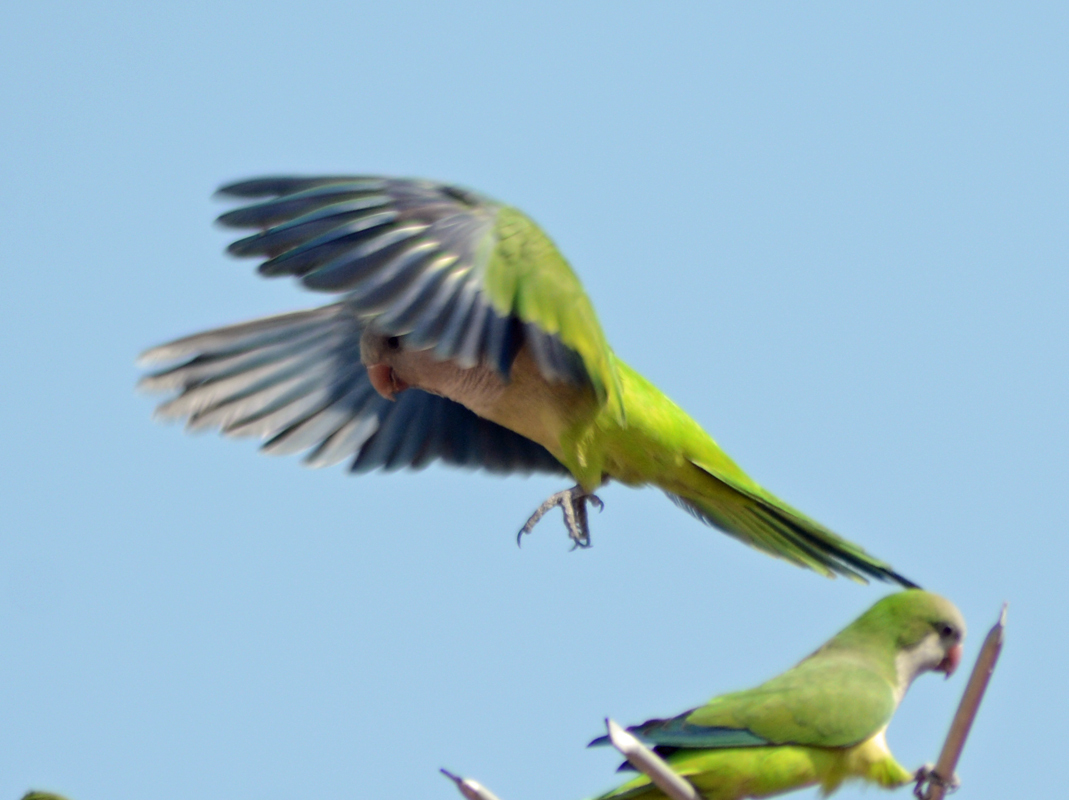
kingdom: Animalia
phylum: Chordata
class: Aves
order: Psittaciformes
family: Psittacidae
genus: Myiopsitta
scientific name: Myiopsitta monachus
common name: Monk parakeet
